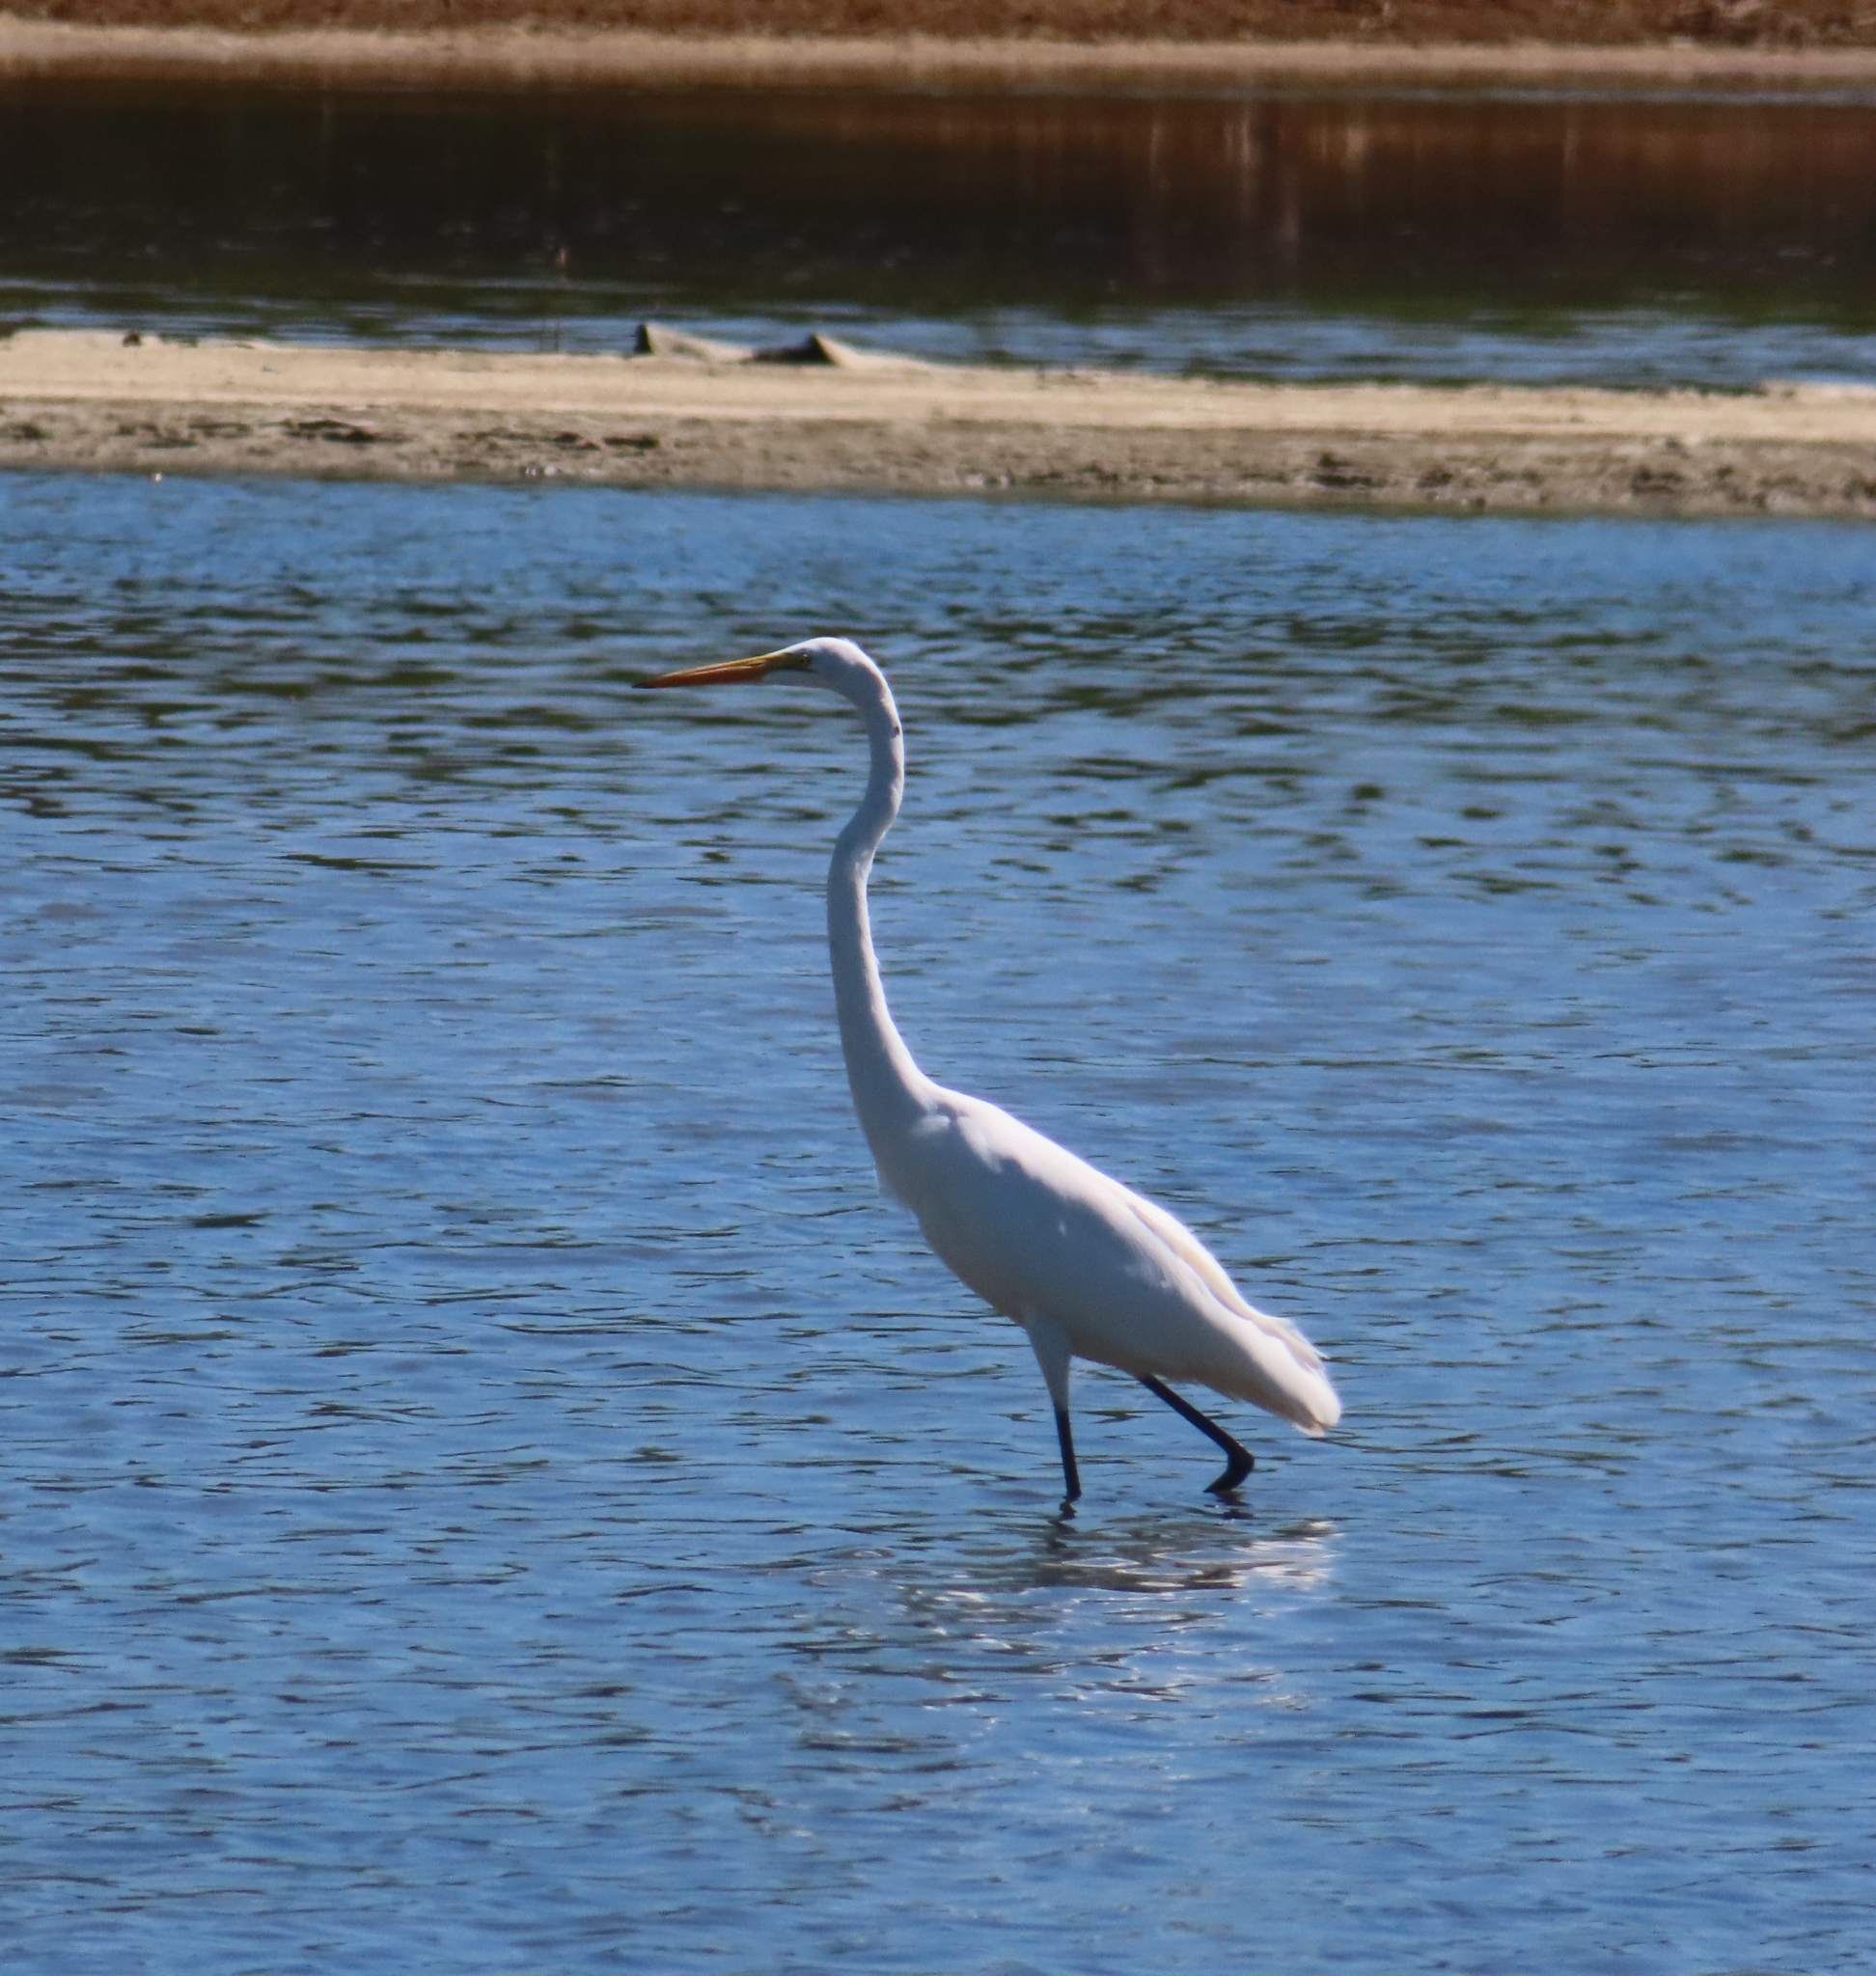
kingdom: Animalia
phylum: Chordata
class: Aves
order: Pelecaniformes
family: Ardeidae
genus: Ardea
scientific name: Ardea alba
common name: Great egret
